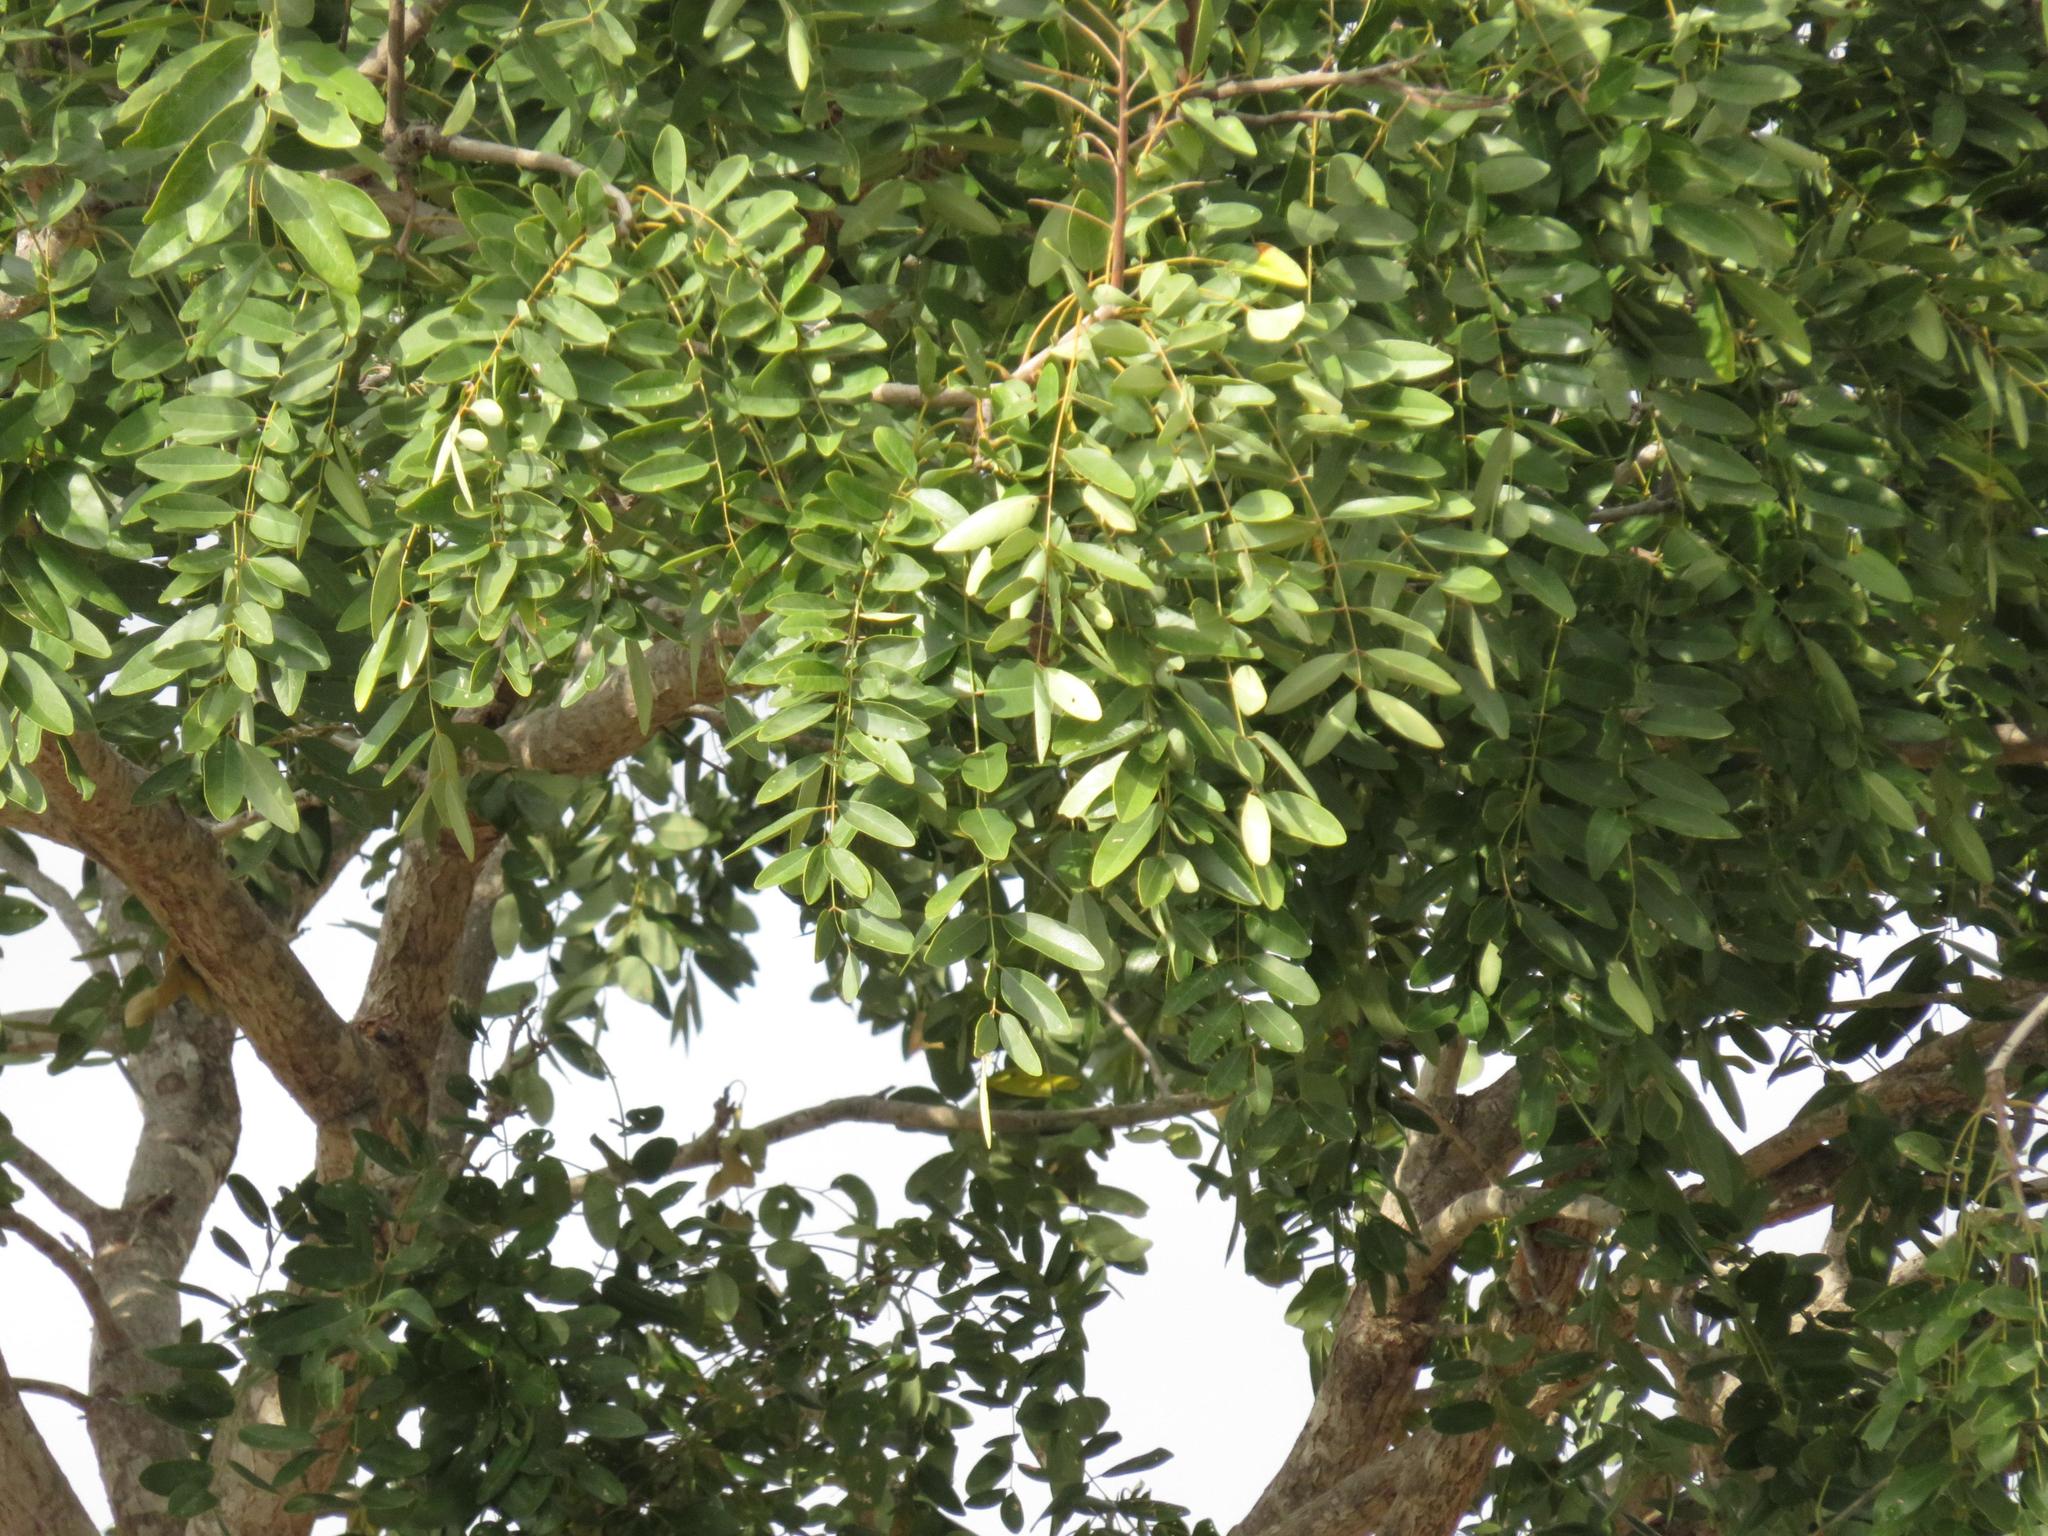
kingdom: Plantae
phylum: Tracheophyta
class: Magnoliopsida
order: Fabales
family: Fabaceae
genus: Cassia
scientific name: Cassia abbreviata
